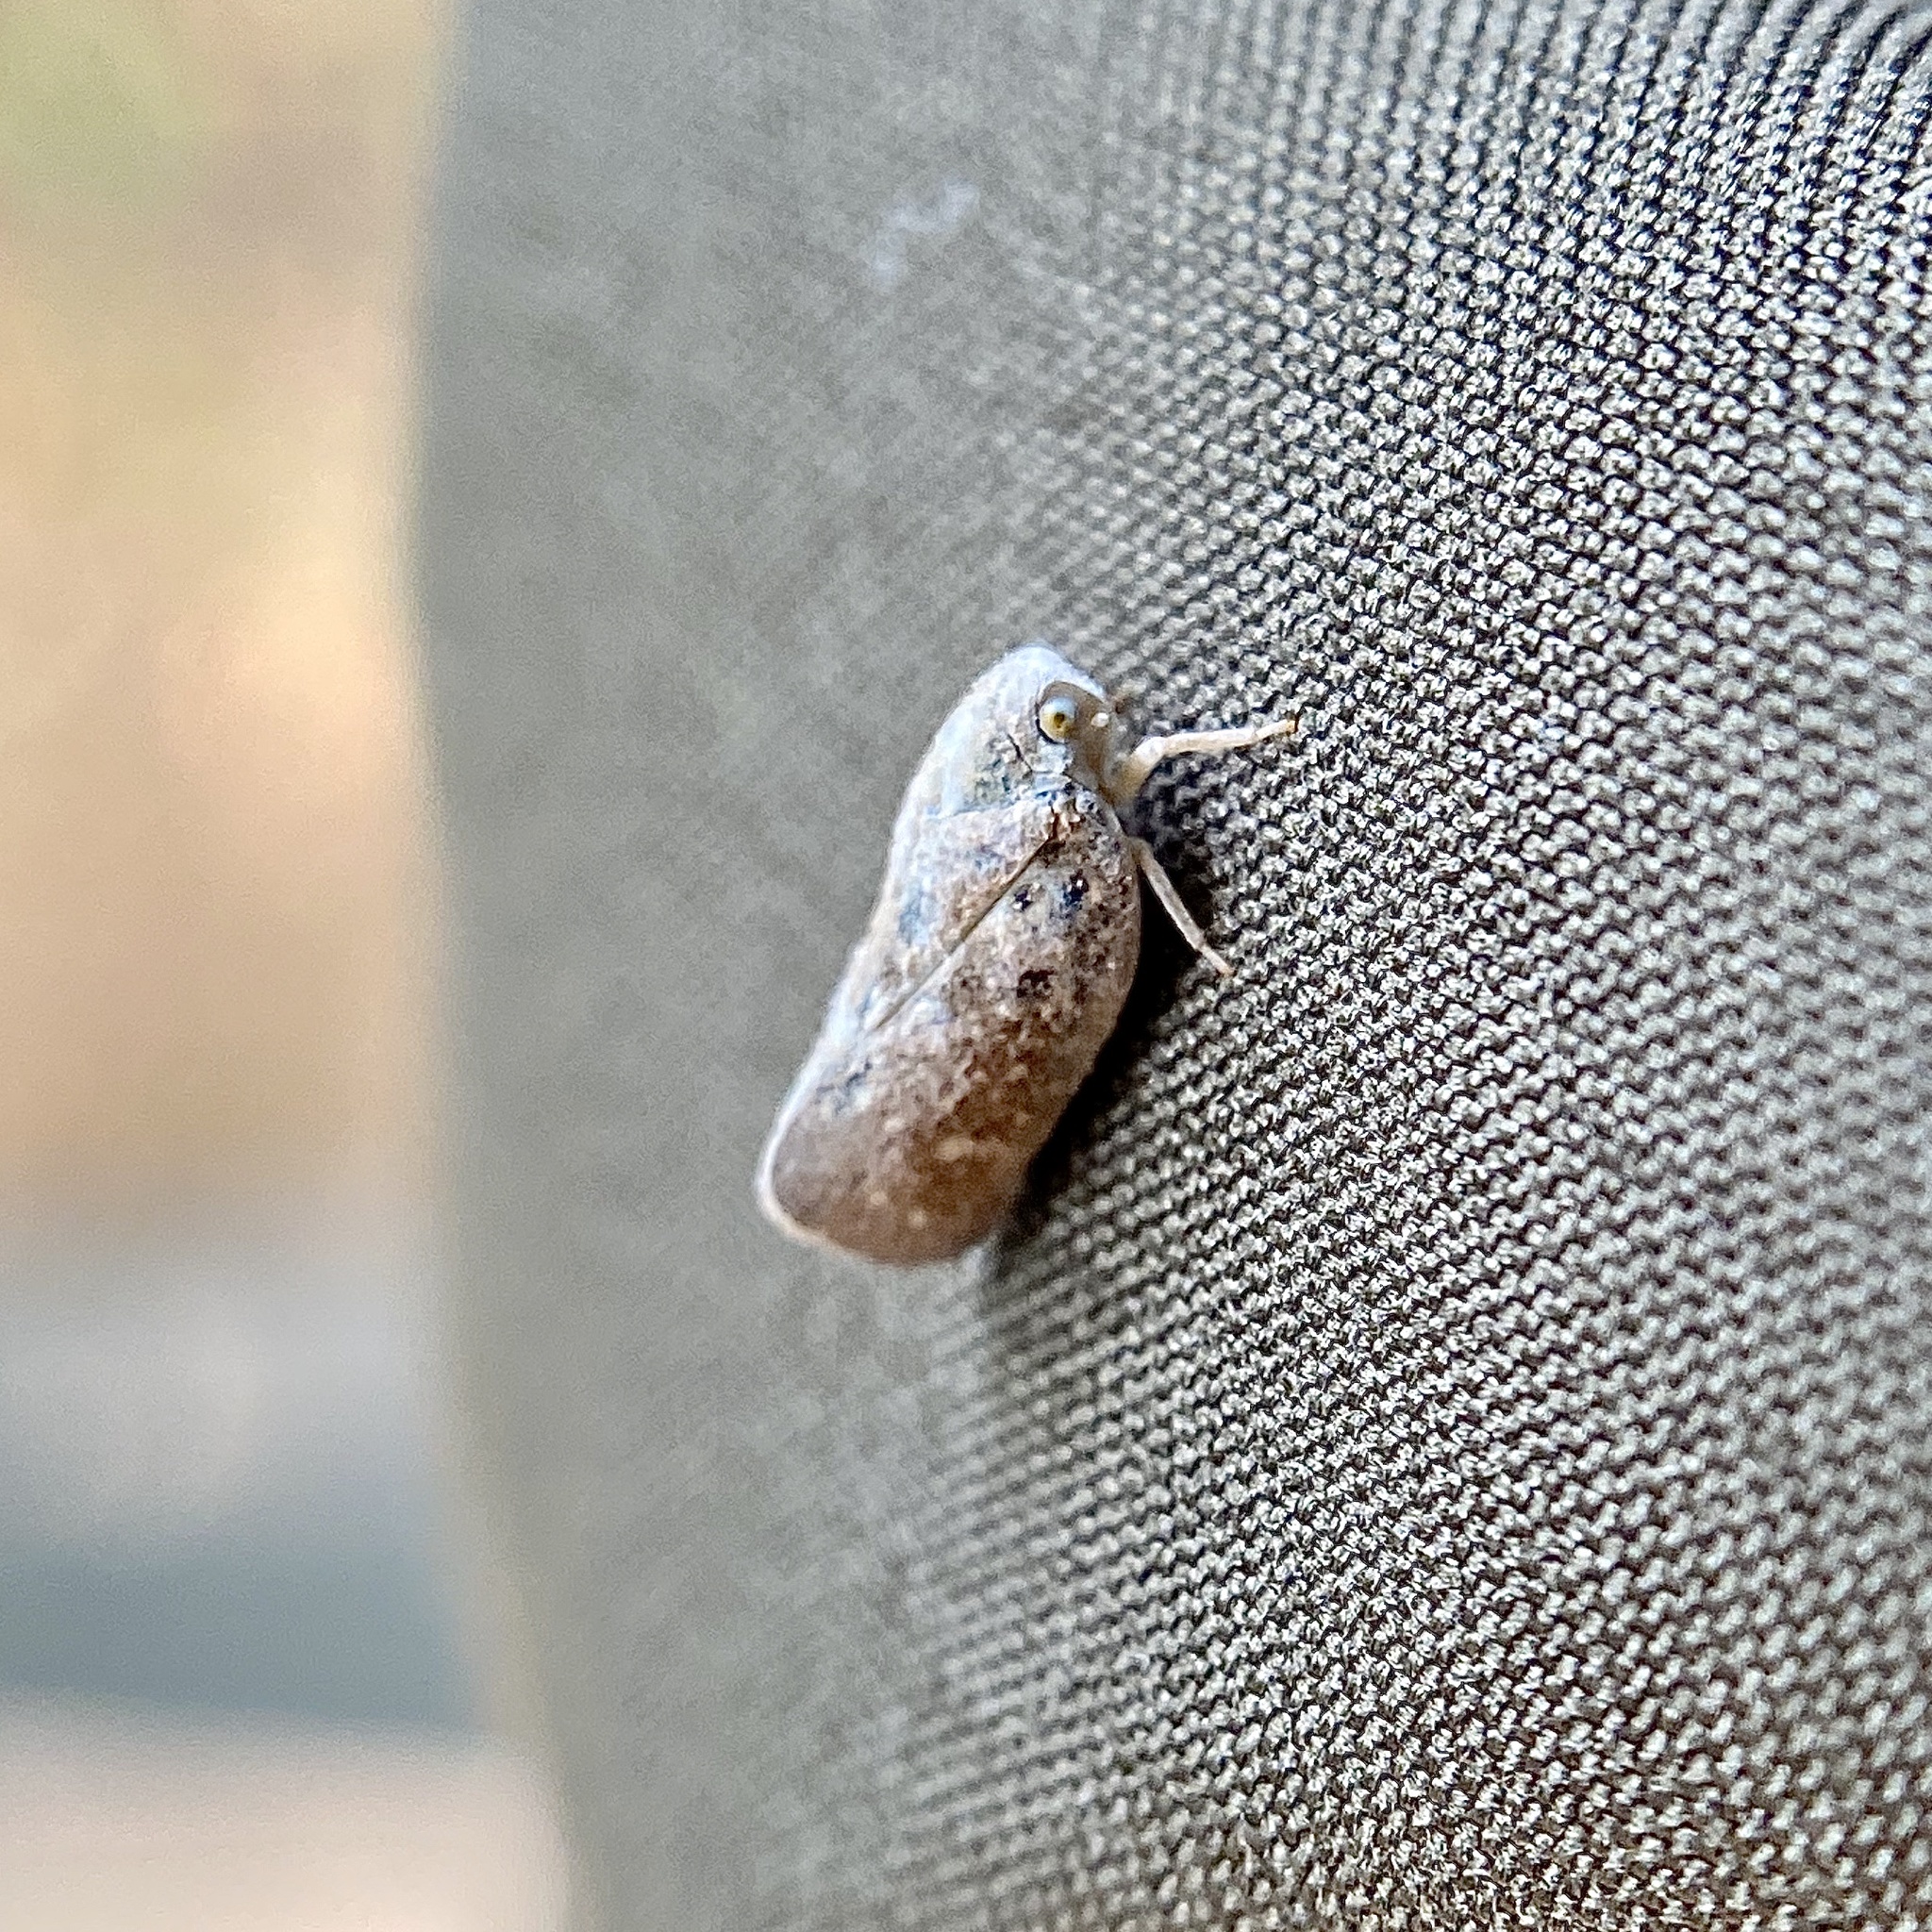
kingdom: Animalia
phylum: Arthropoda
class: Insecta
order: Hemiptera
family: Flatidae
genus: Metcalfa
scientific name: Metcalfa pruinosa
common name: Citrus flatid planthopper
